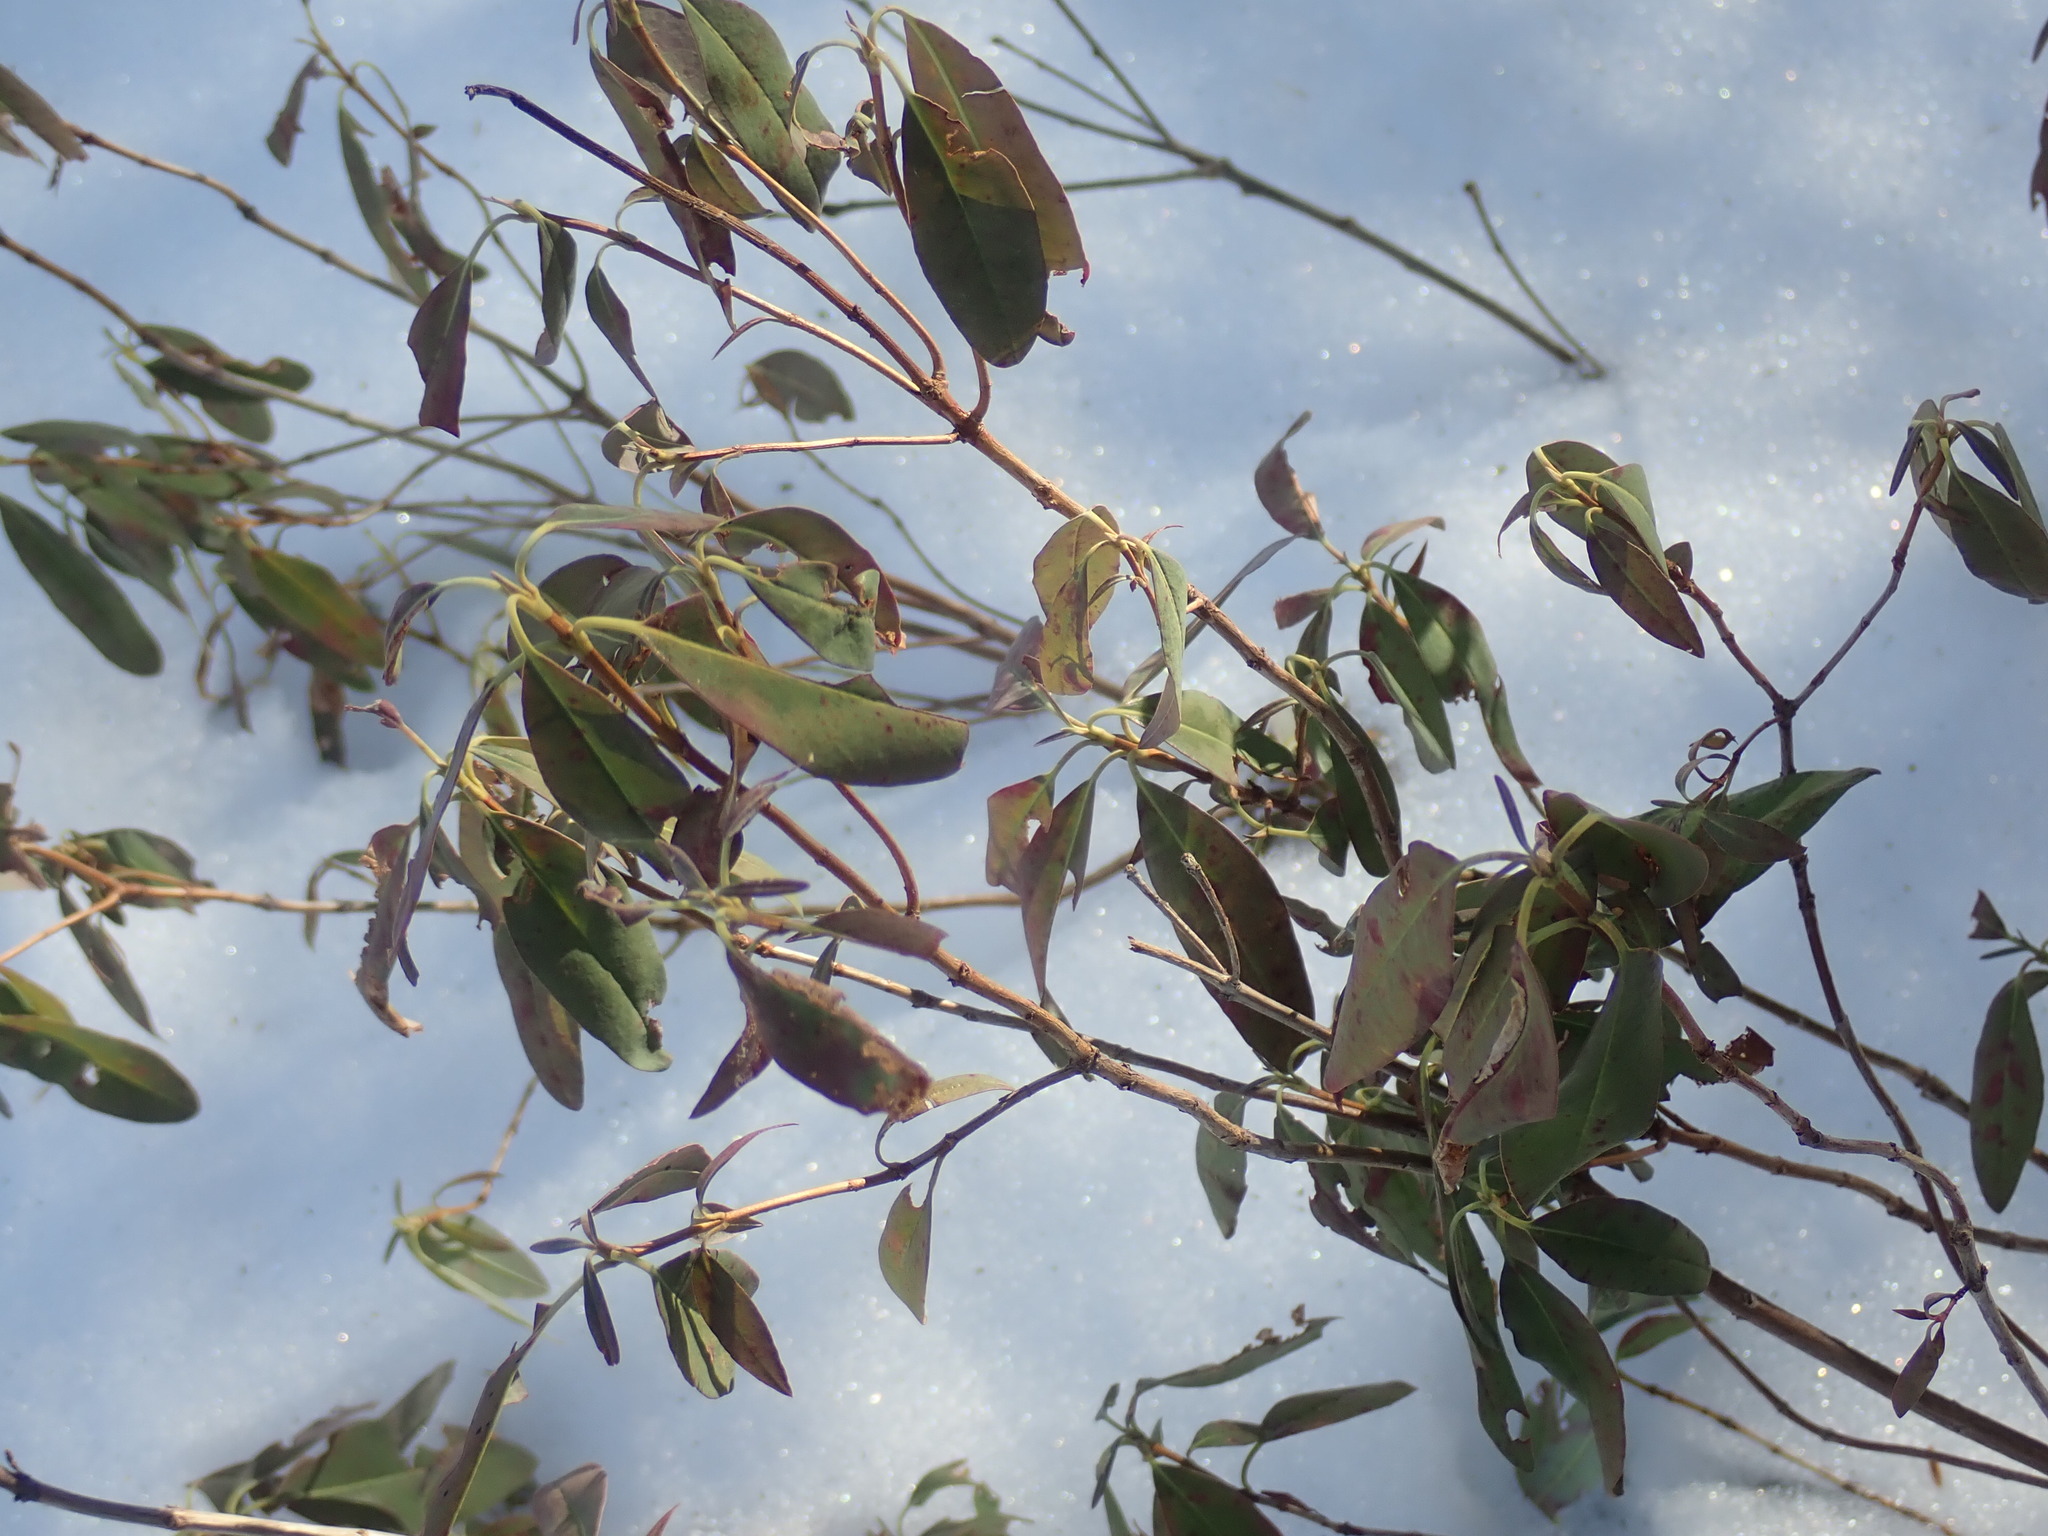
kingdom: Plantae
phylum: Tracheophyta
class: Magnoliopsida
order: Ericales
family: Ericaceae
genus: Kalmia
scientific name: Kalmia angustifolia
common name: Sheep-laurel
